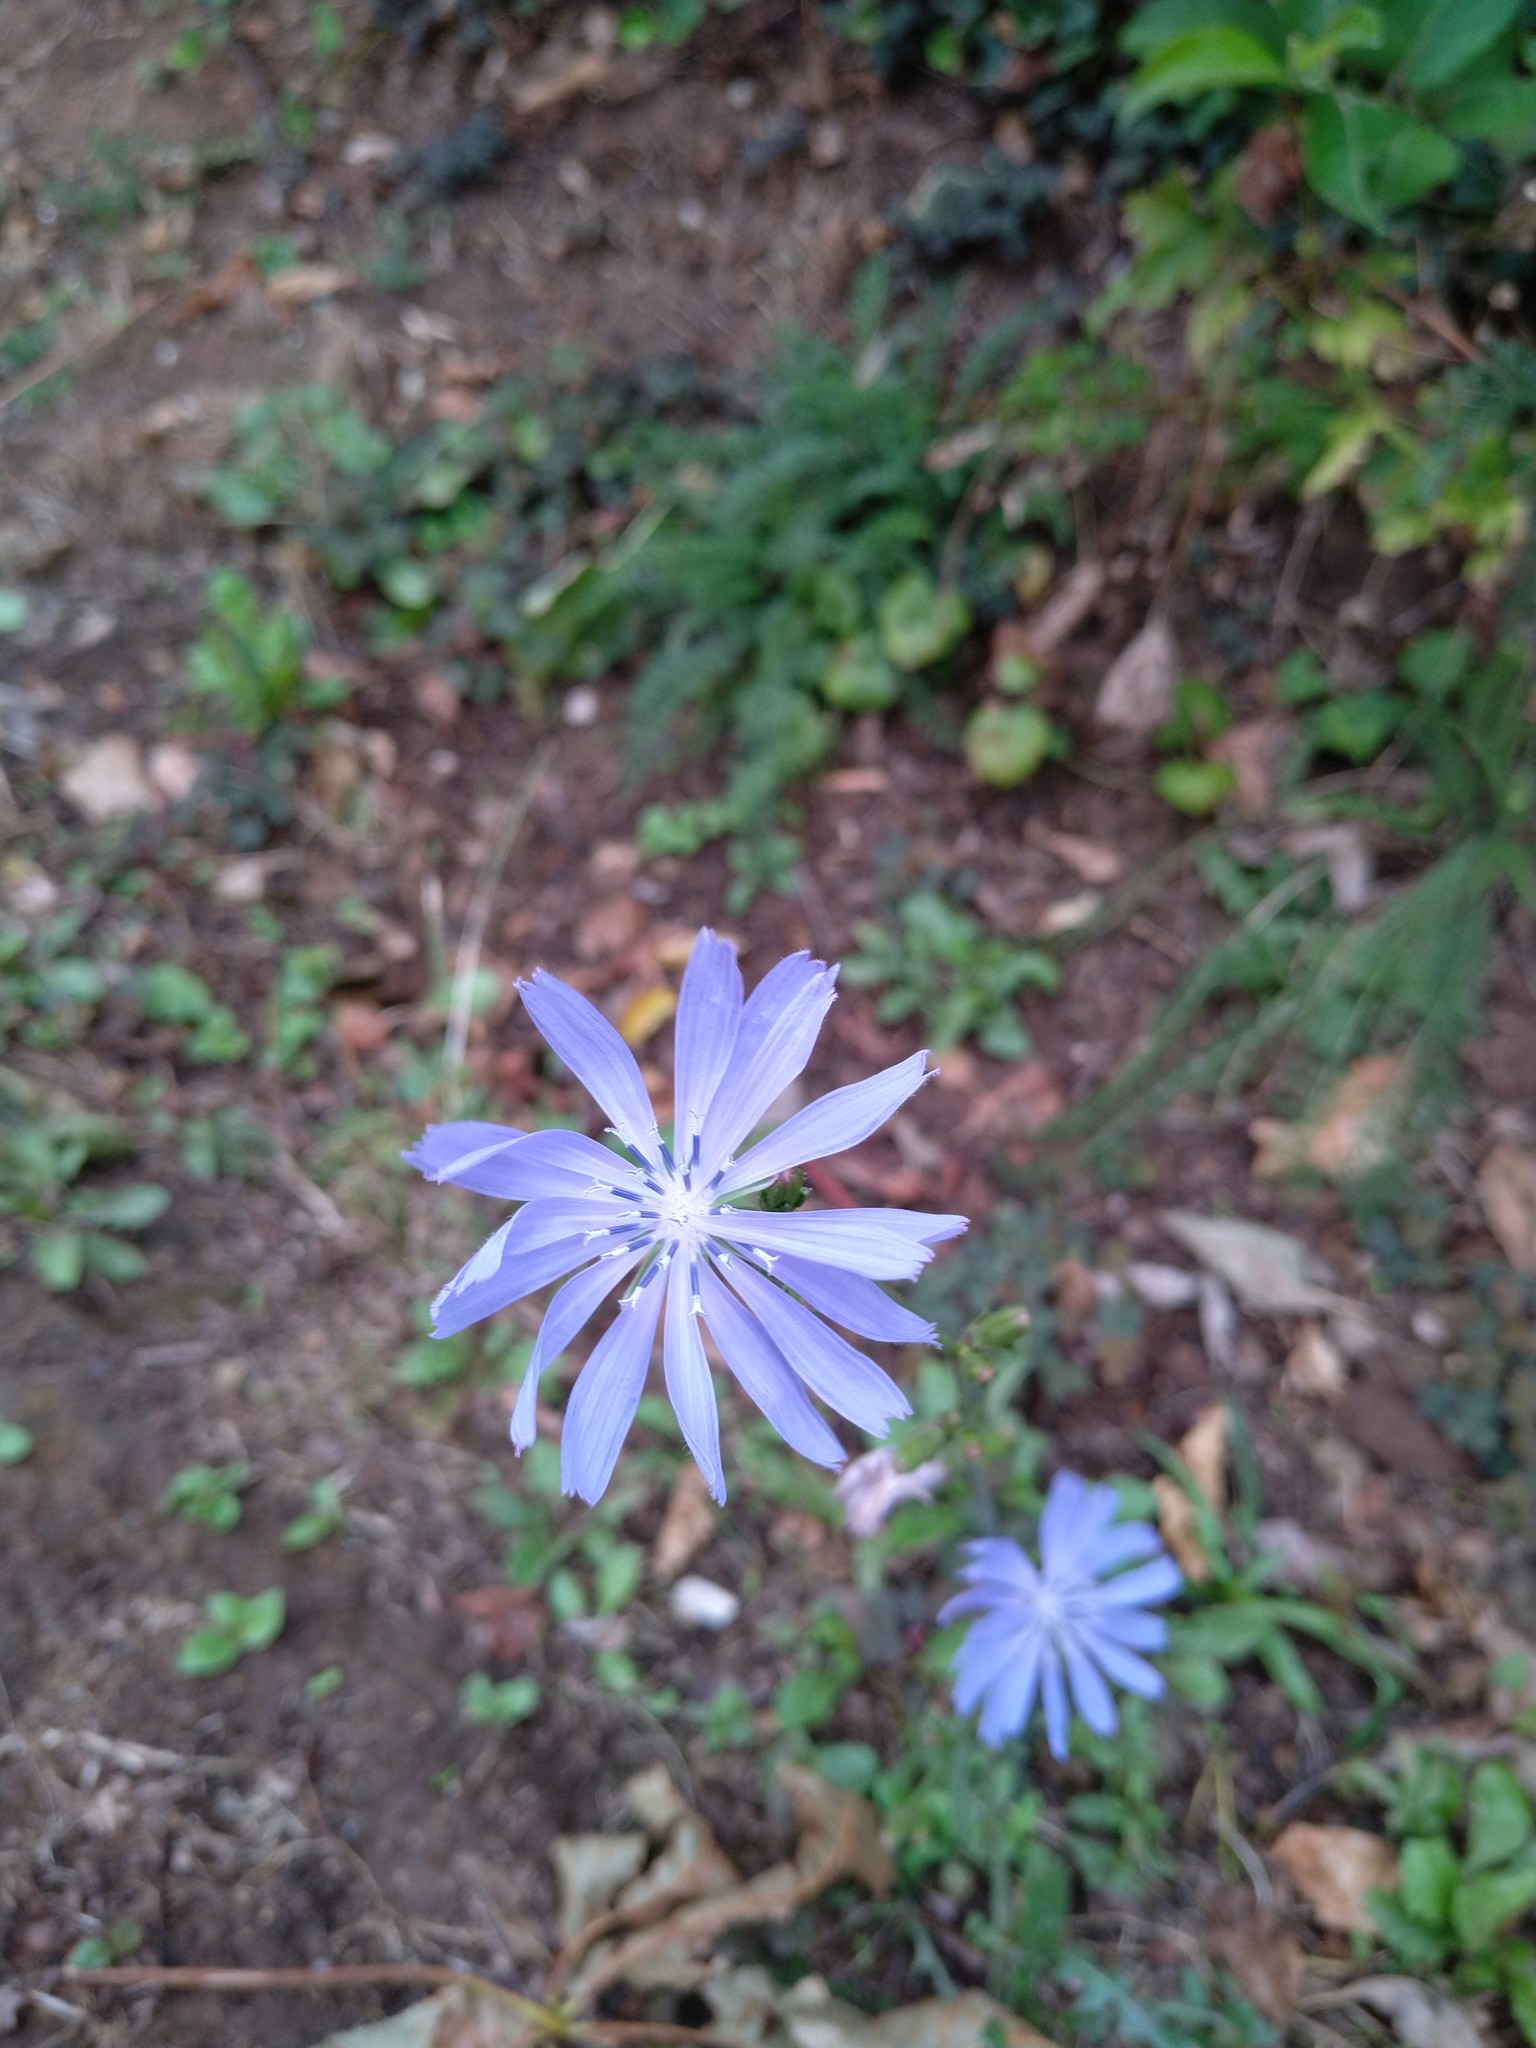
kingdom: Plantae
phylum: Tracheophyta
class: Magnoliopsida
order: Asterales
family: Asteraceae
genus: Cichorium
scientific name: Cichorium intybus
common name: Chicory
